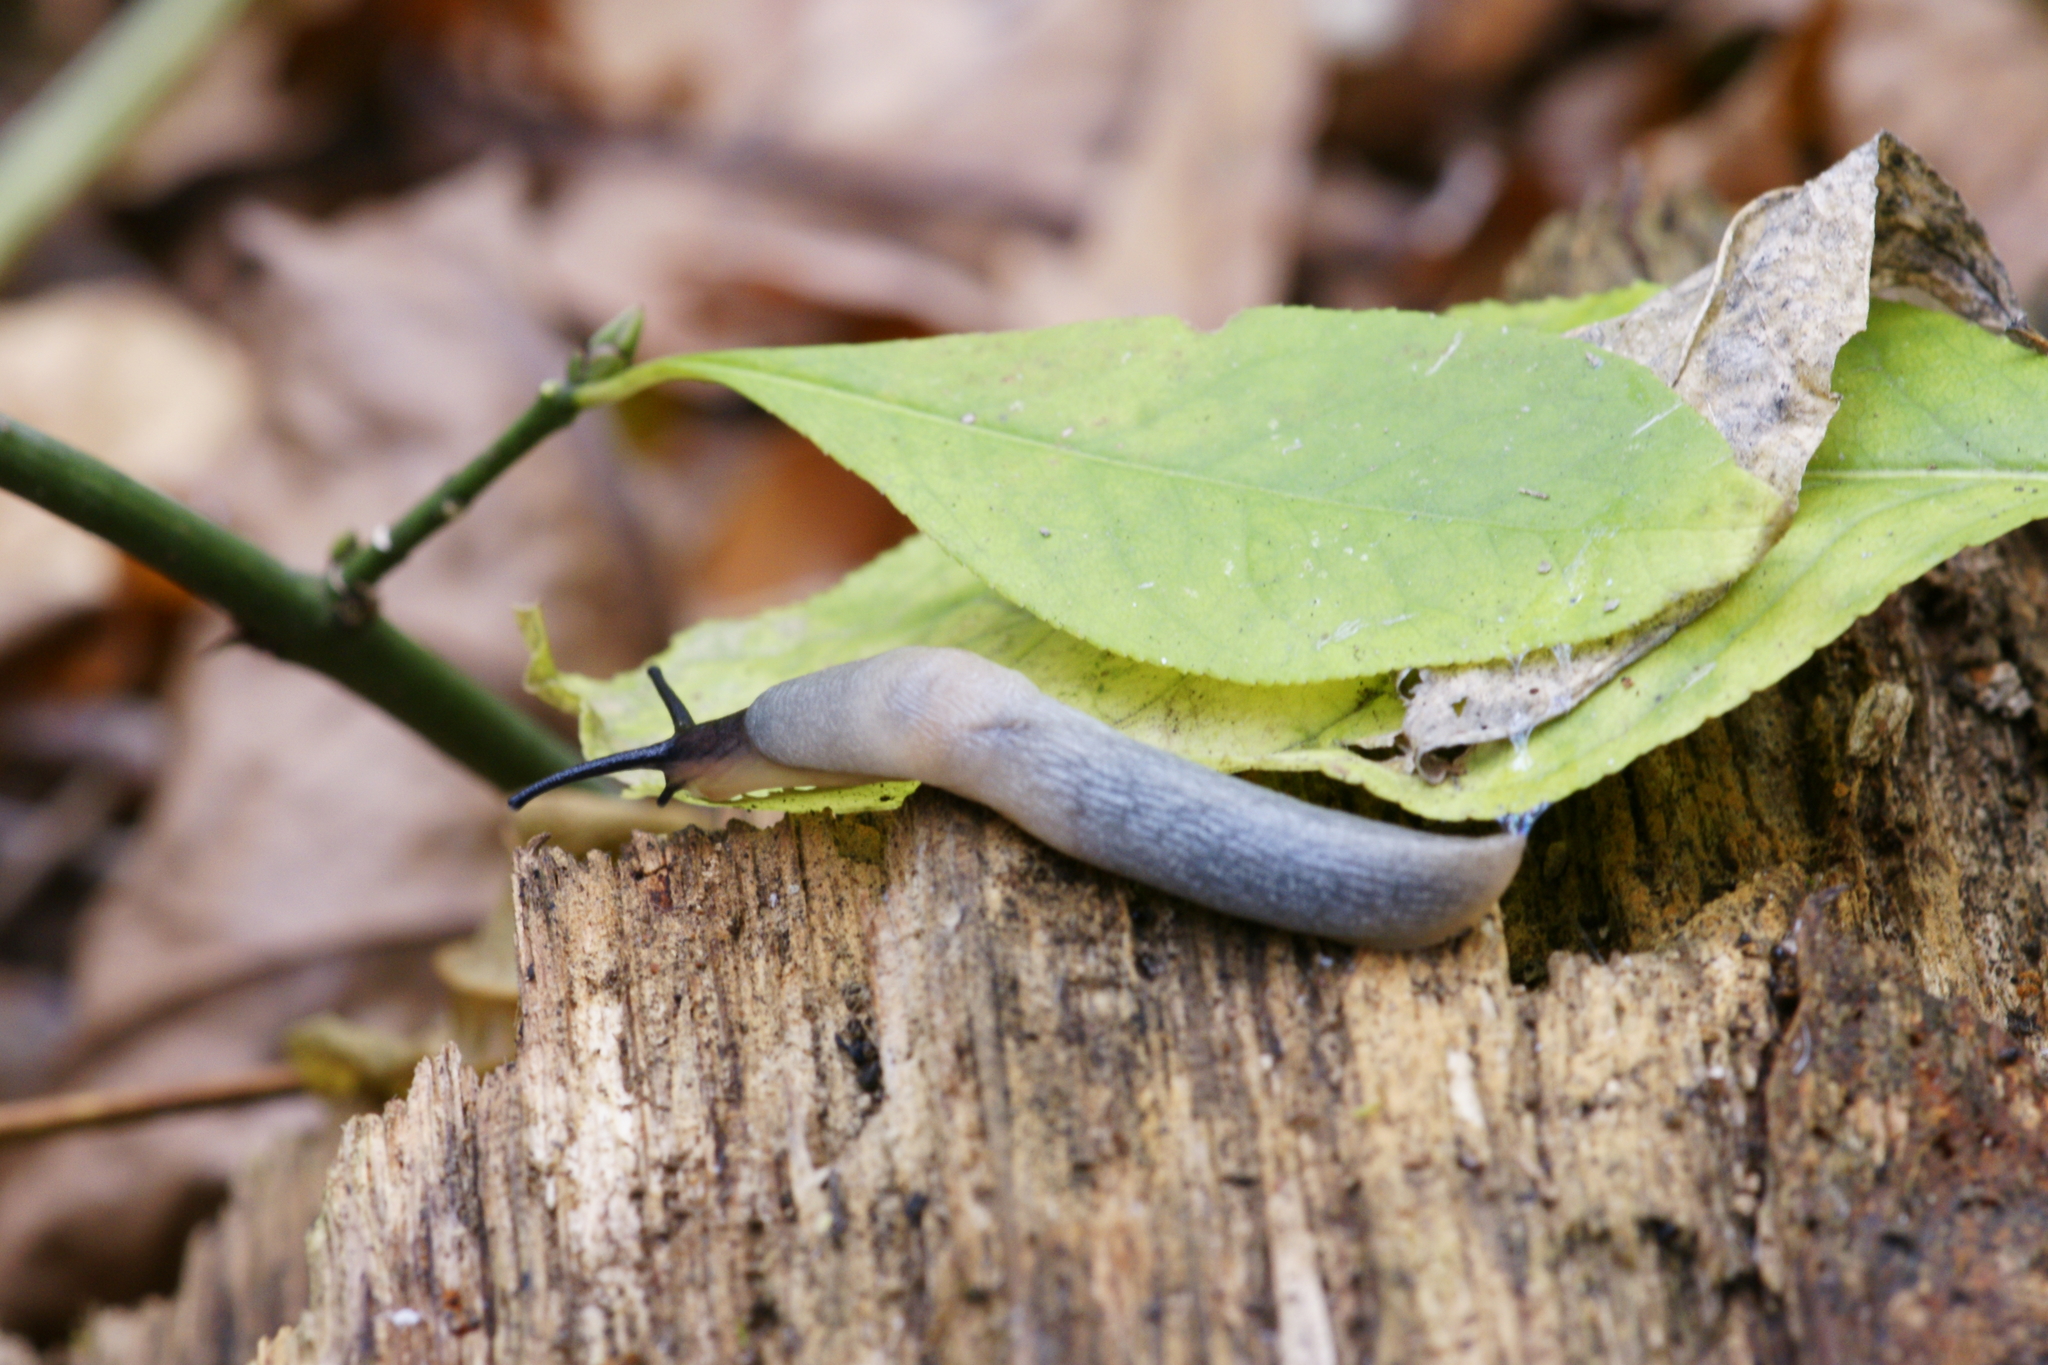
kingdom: Animalia
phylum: Mollusca
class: Gastropoda
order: Stylommatophora
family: Agriolimacidae
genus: Krynickillus
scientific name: Krynickillus melanocephalus
